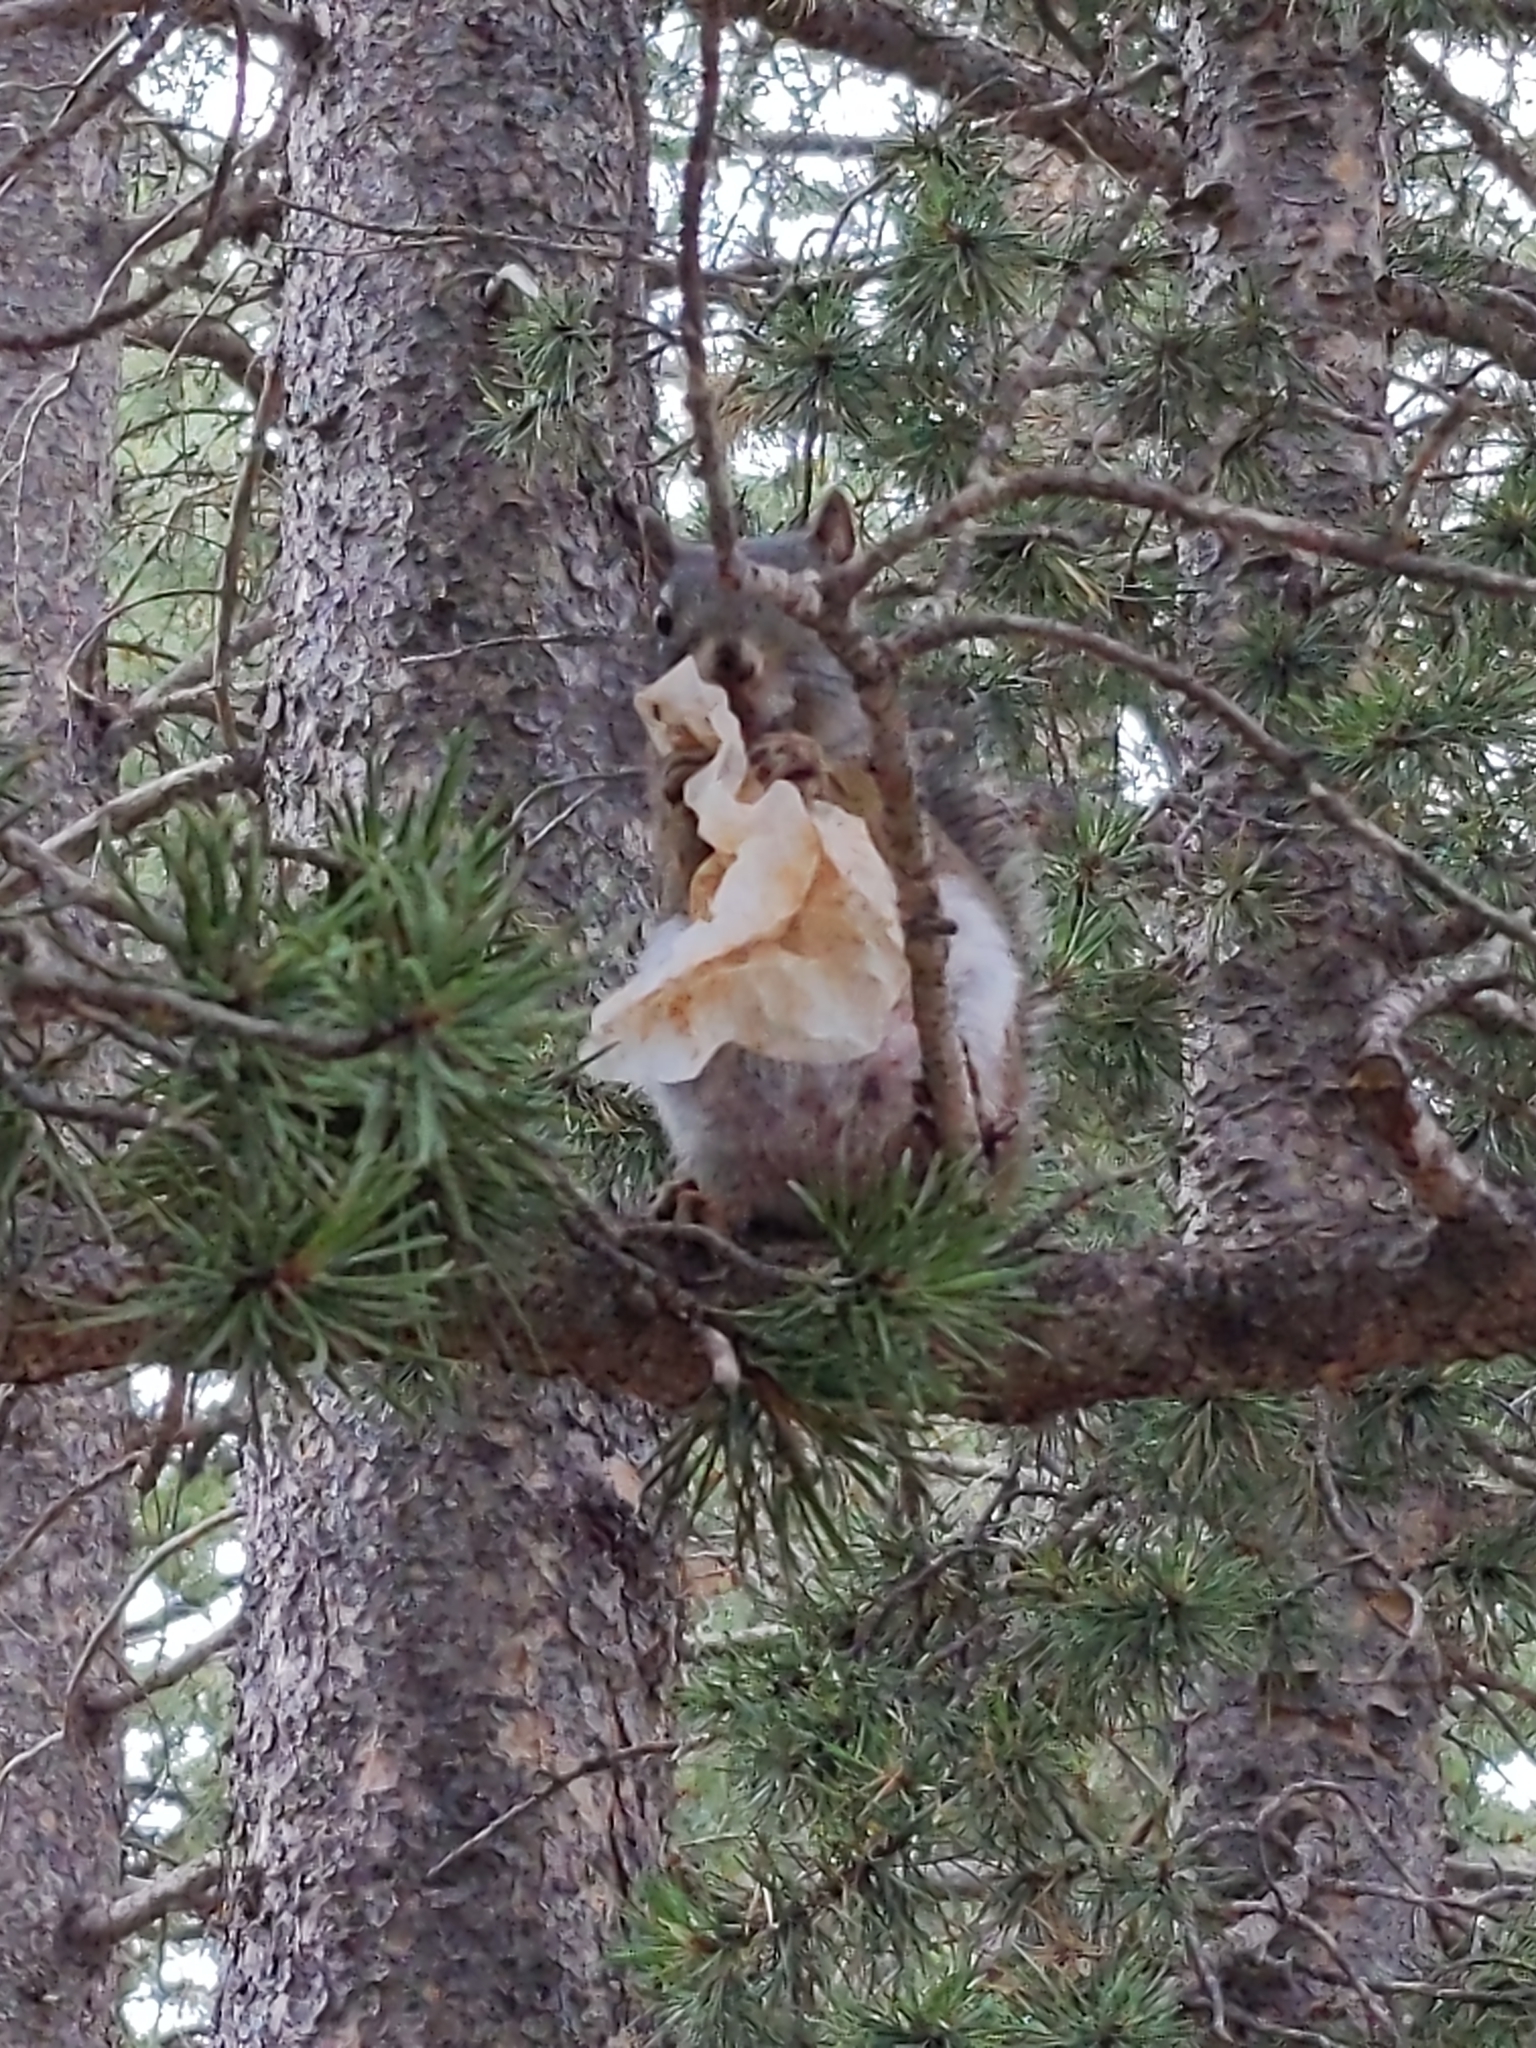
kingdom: Animalia
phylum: Chordata
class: Mammalia
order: Rodentia
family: Sciuridae
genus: Tamiasciurus
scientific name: Tamiasciurus hudsonicus
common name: Red squirrel
